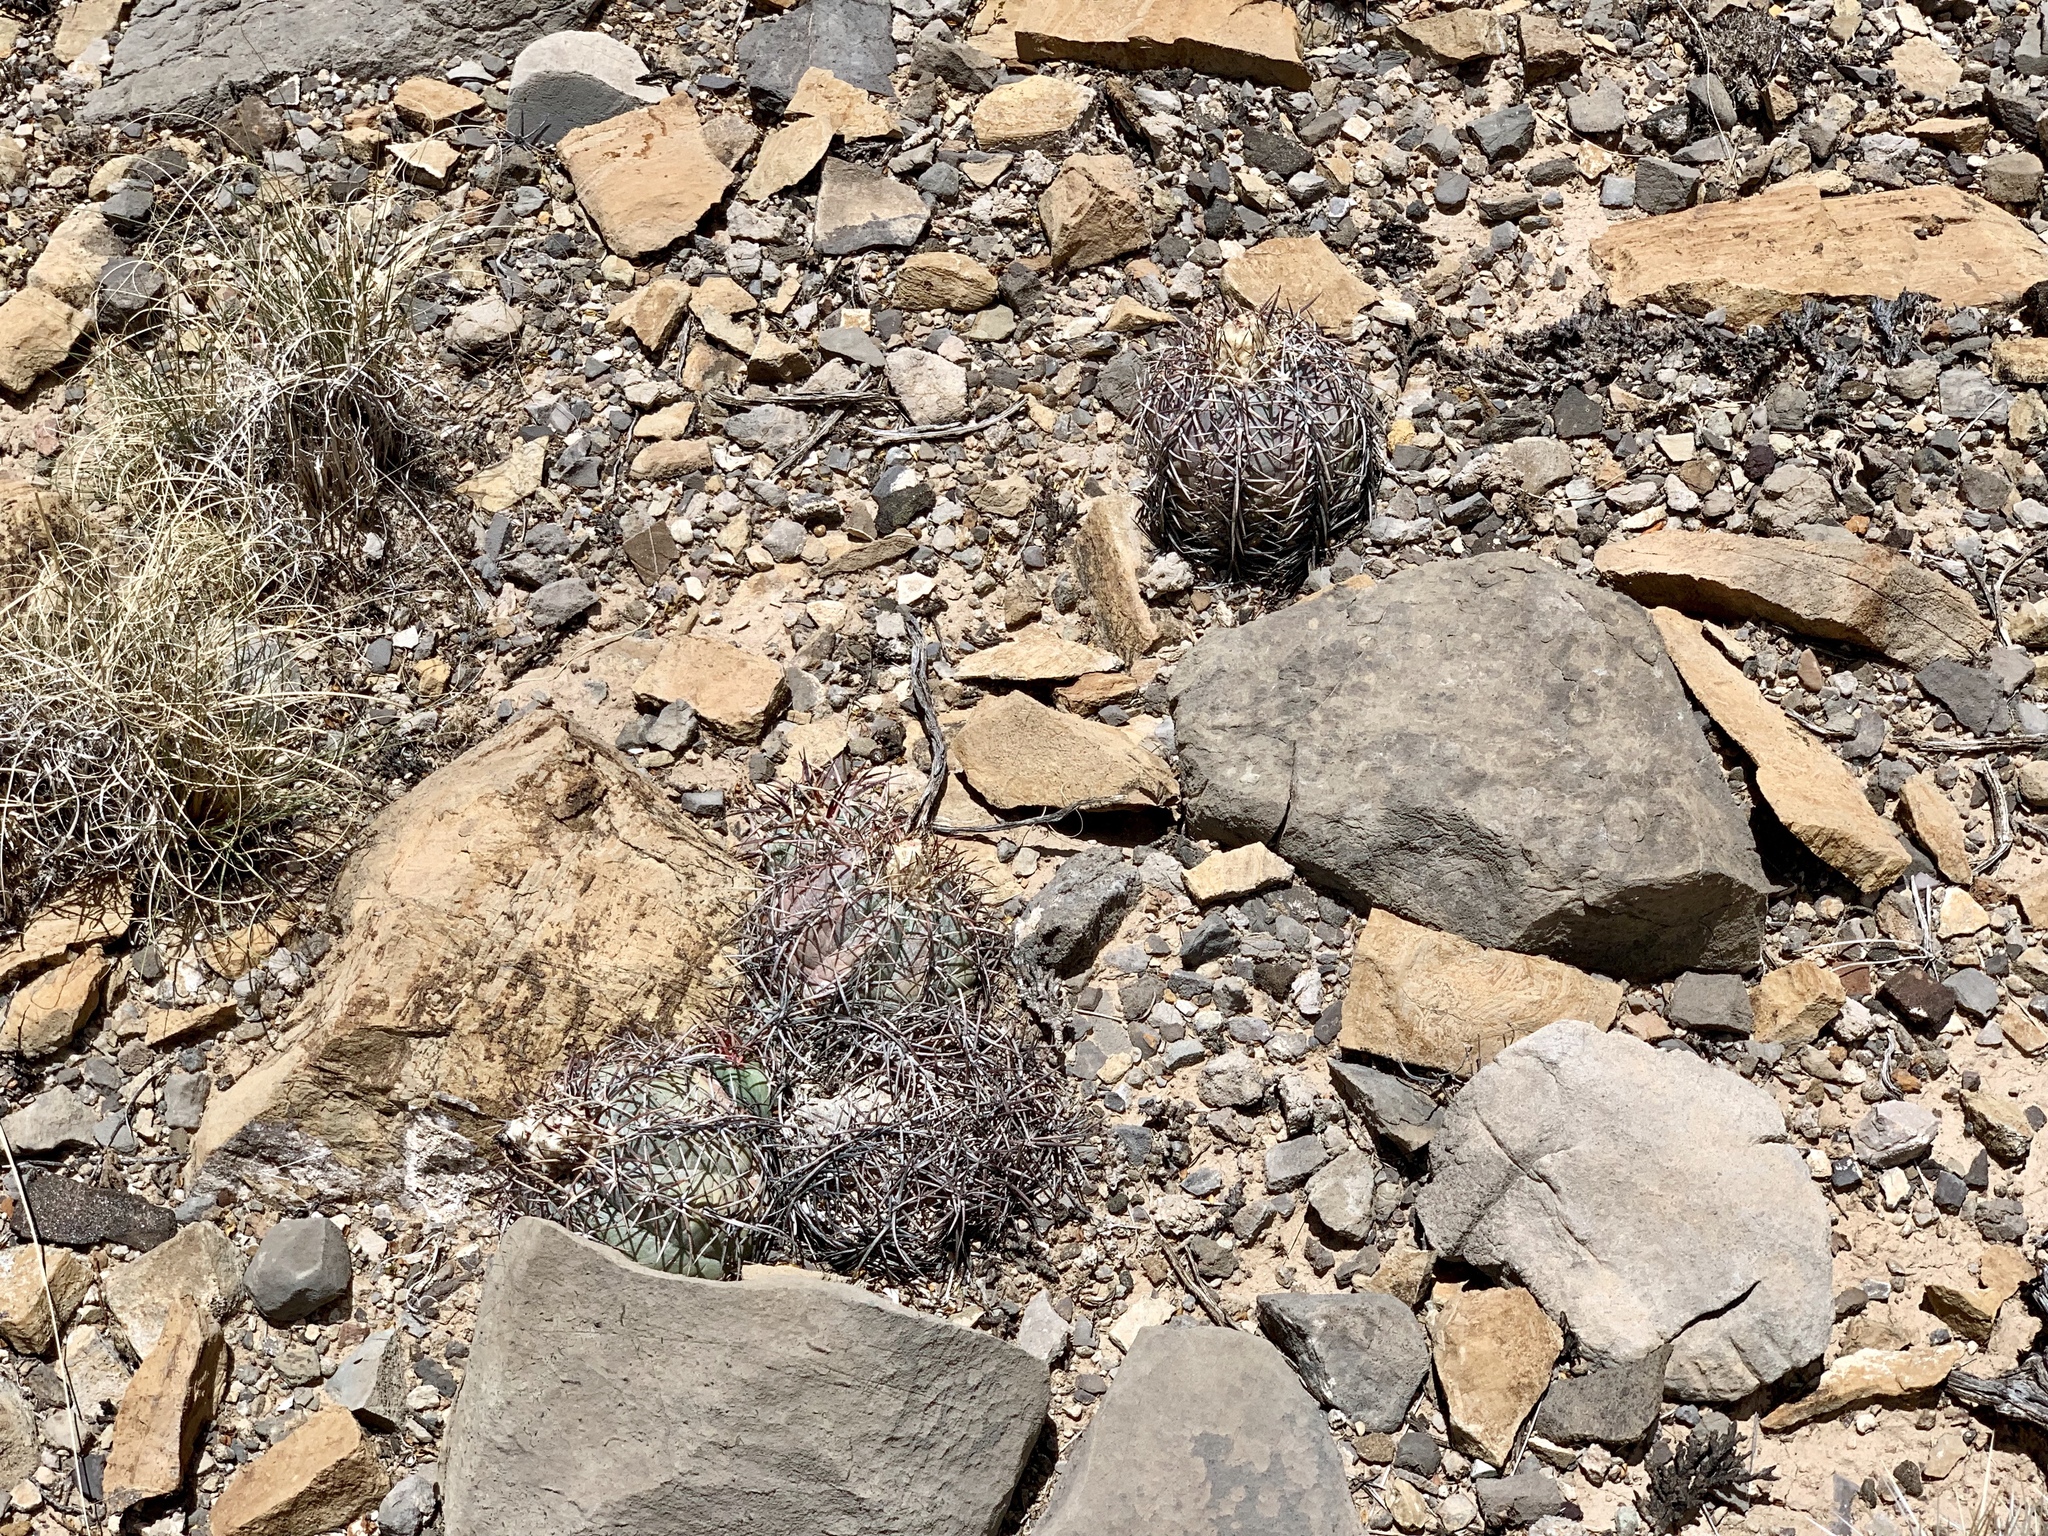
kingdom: Plantae
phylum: Tracheophyta
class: Magnoliopsida
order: Caryophyllales
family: Cactaceae
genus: Echinocactus
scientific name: Echinocactus horizonthalonius
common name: Devilshead
